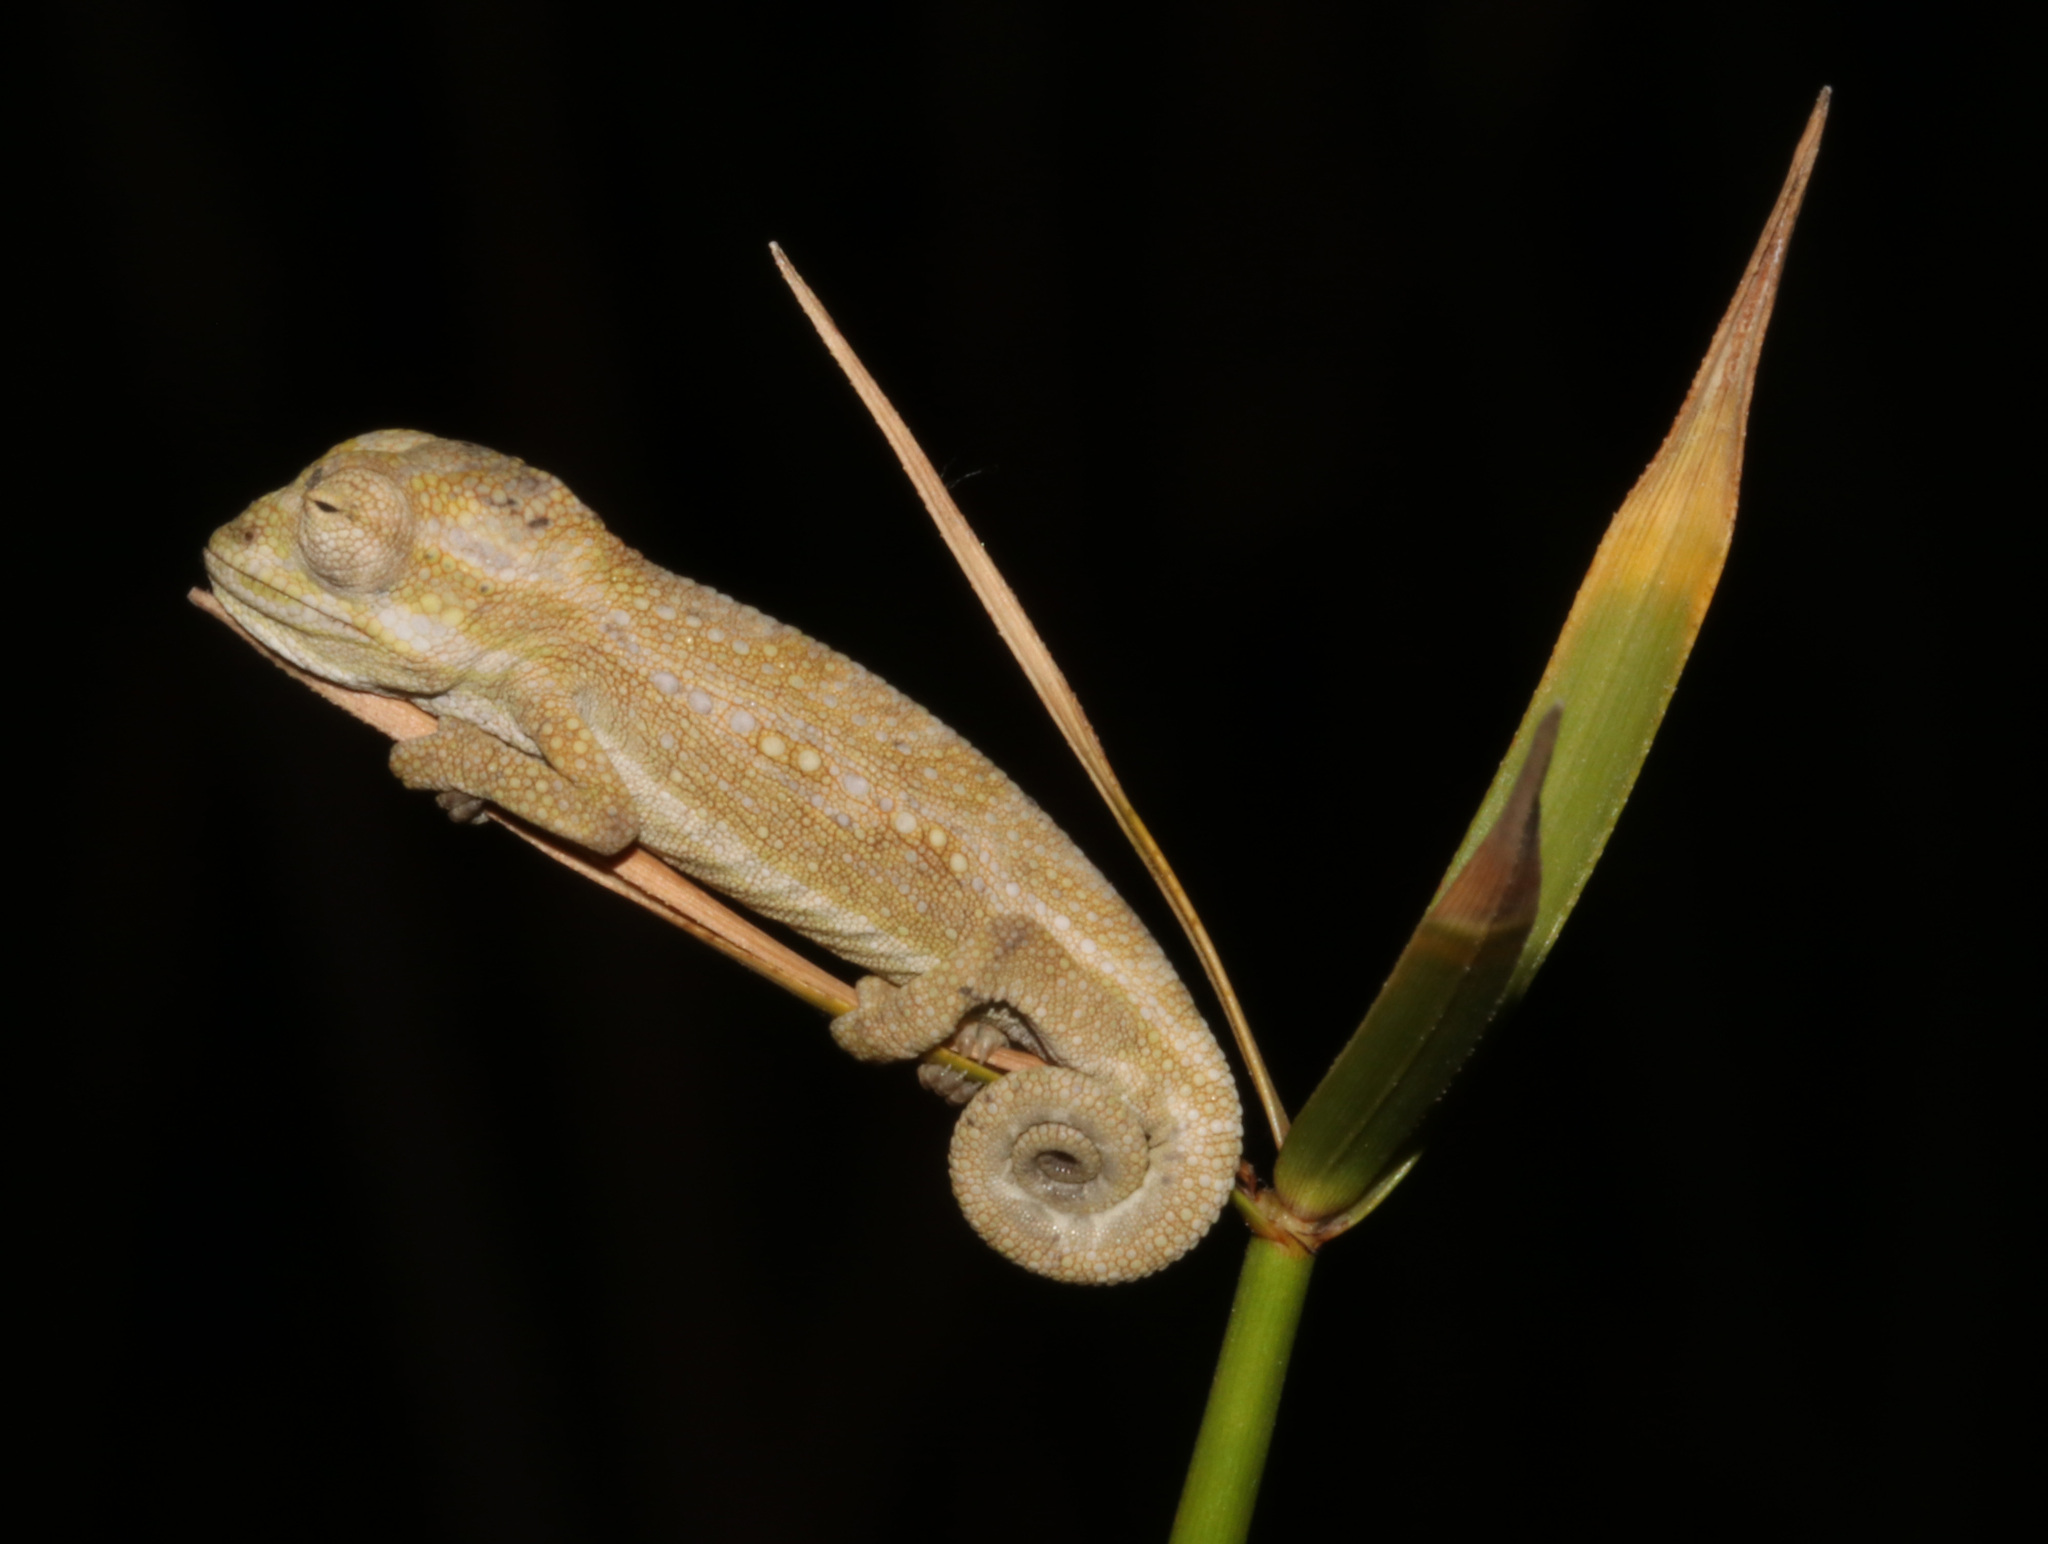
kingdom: Animalia
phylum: Chordata
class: Squamata
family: Chamaeleonidae
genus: Bradypodion
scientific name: Bradypodion pumilum
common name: Cape dwarf chameleon
